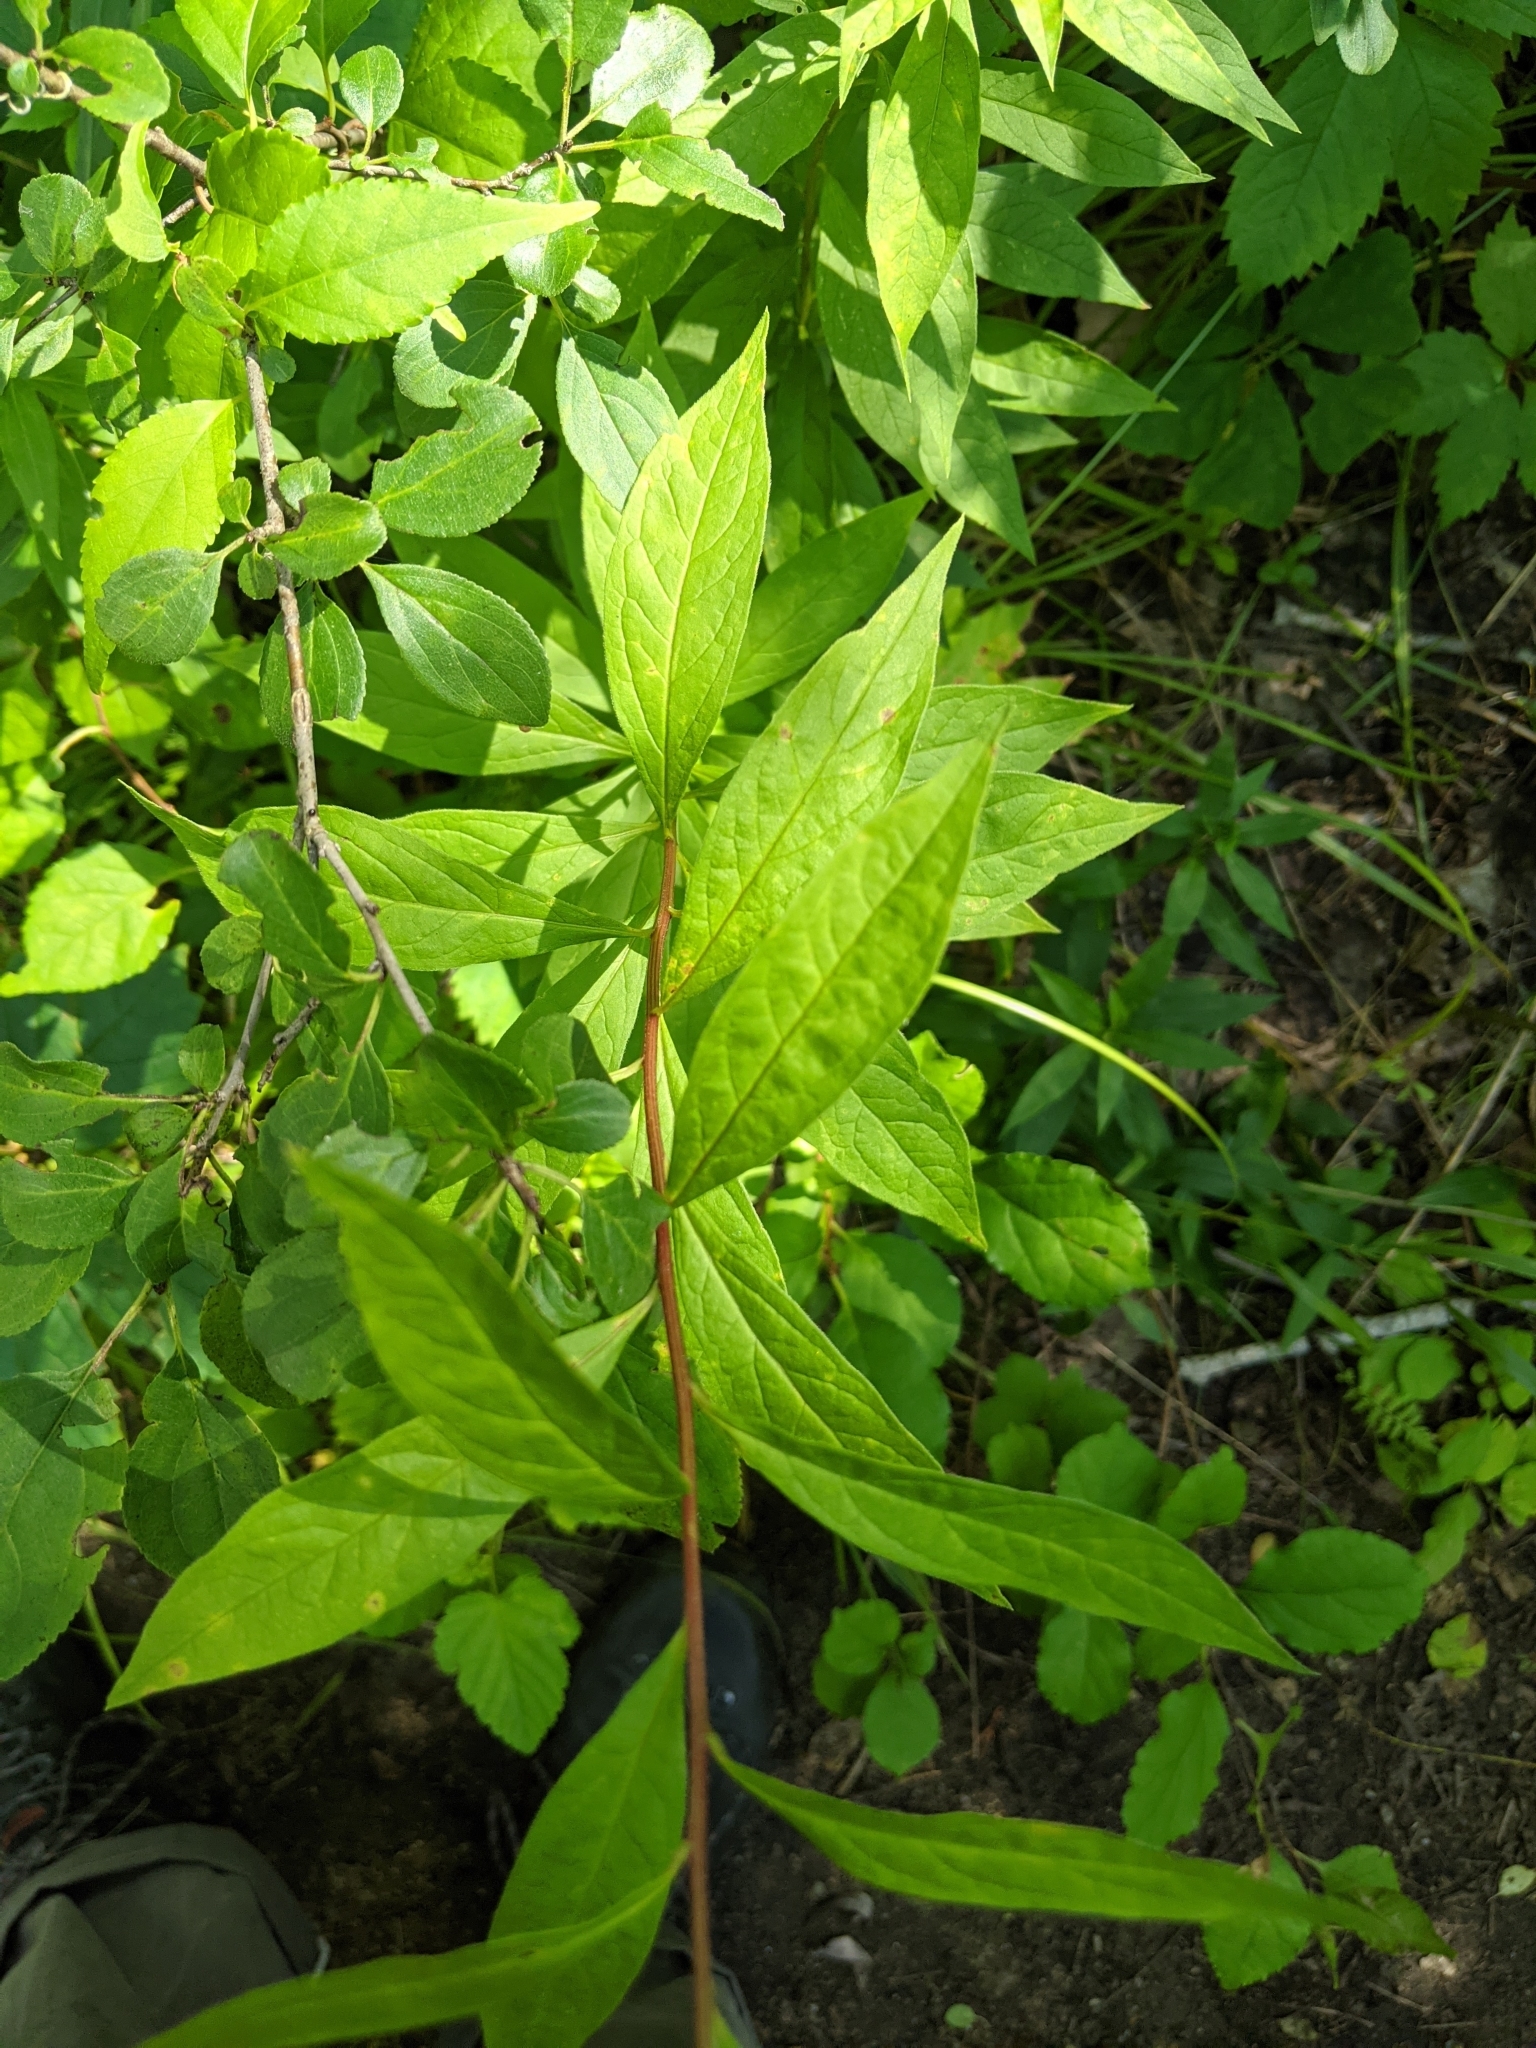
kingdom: Plantae
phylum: Tracheophyta
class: Magnoliopsida
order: Asterales
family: Asteraceae
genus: Doellingeria
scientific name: Doellingeria umbellata
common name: Flat-top white aster
